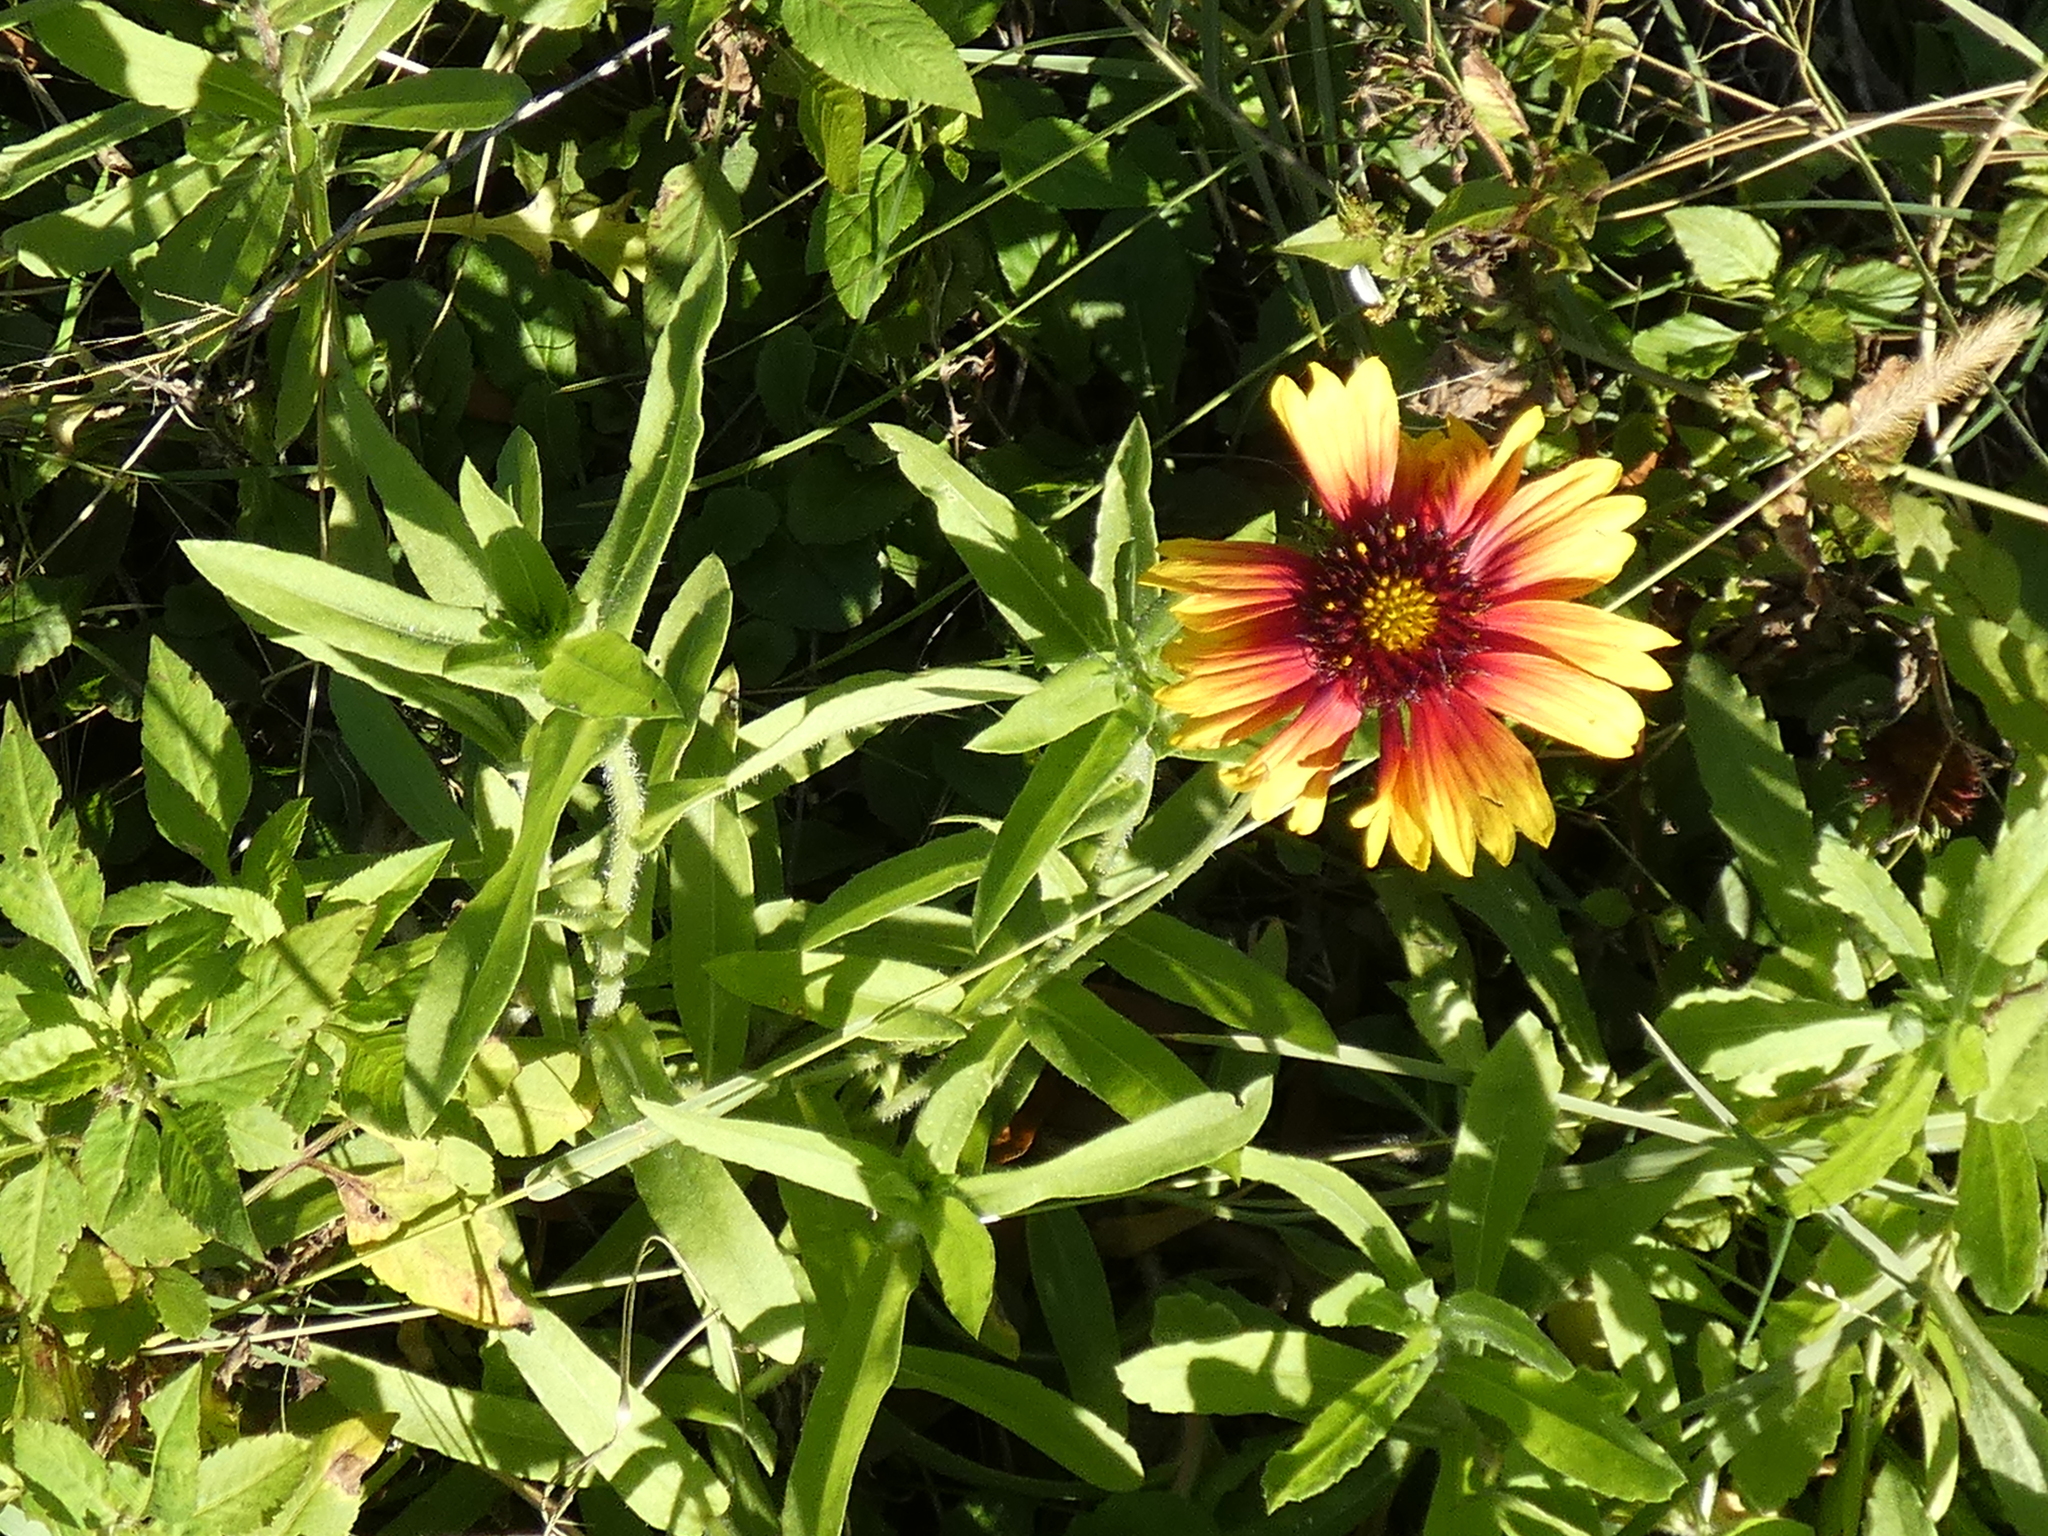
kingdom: Plantae
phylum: Tracheophyta
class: Magnoliopsida
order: Asterales
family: Asteraceae
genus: Gaillardia
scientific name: Gaillardia pulchella
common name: Firewheel
